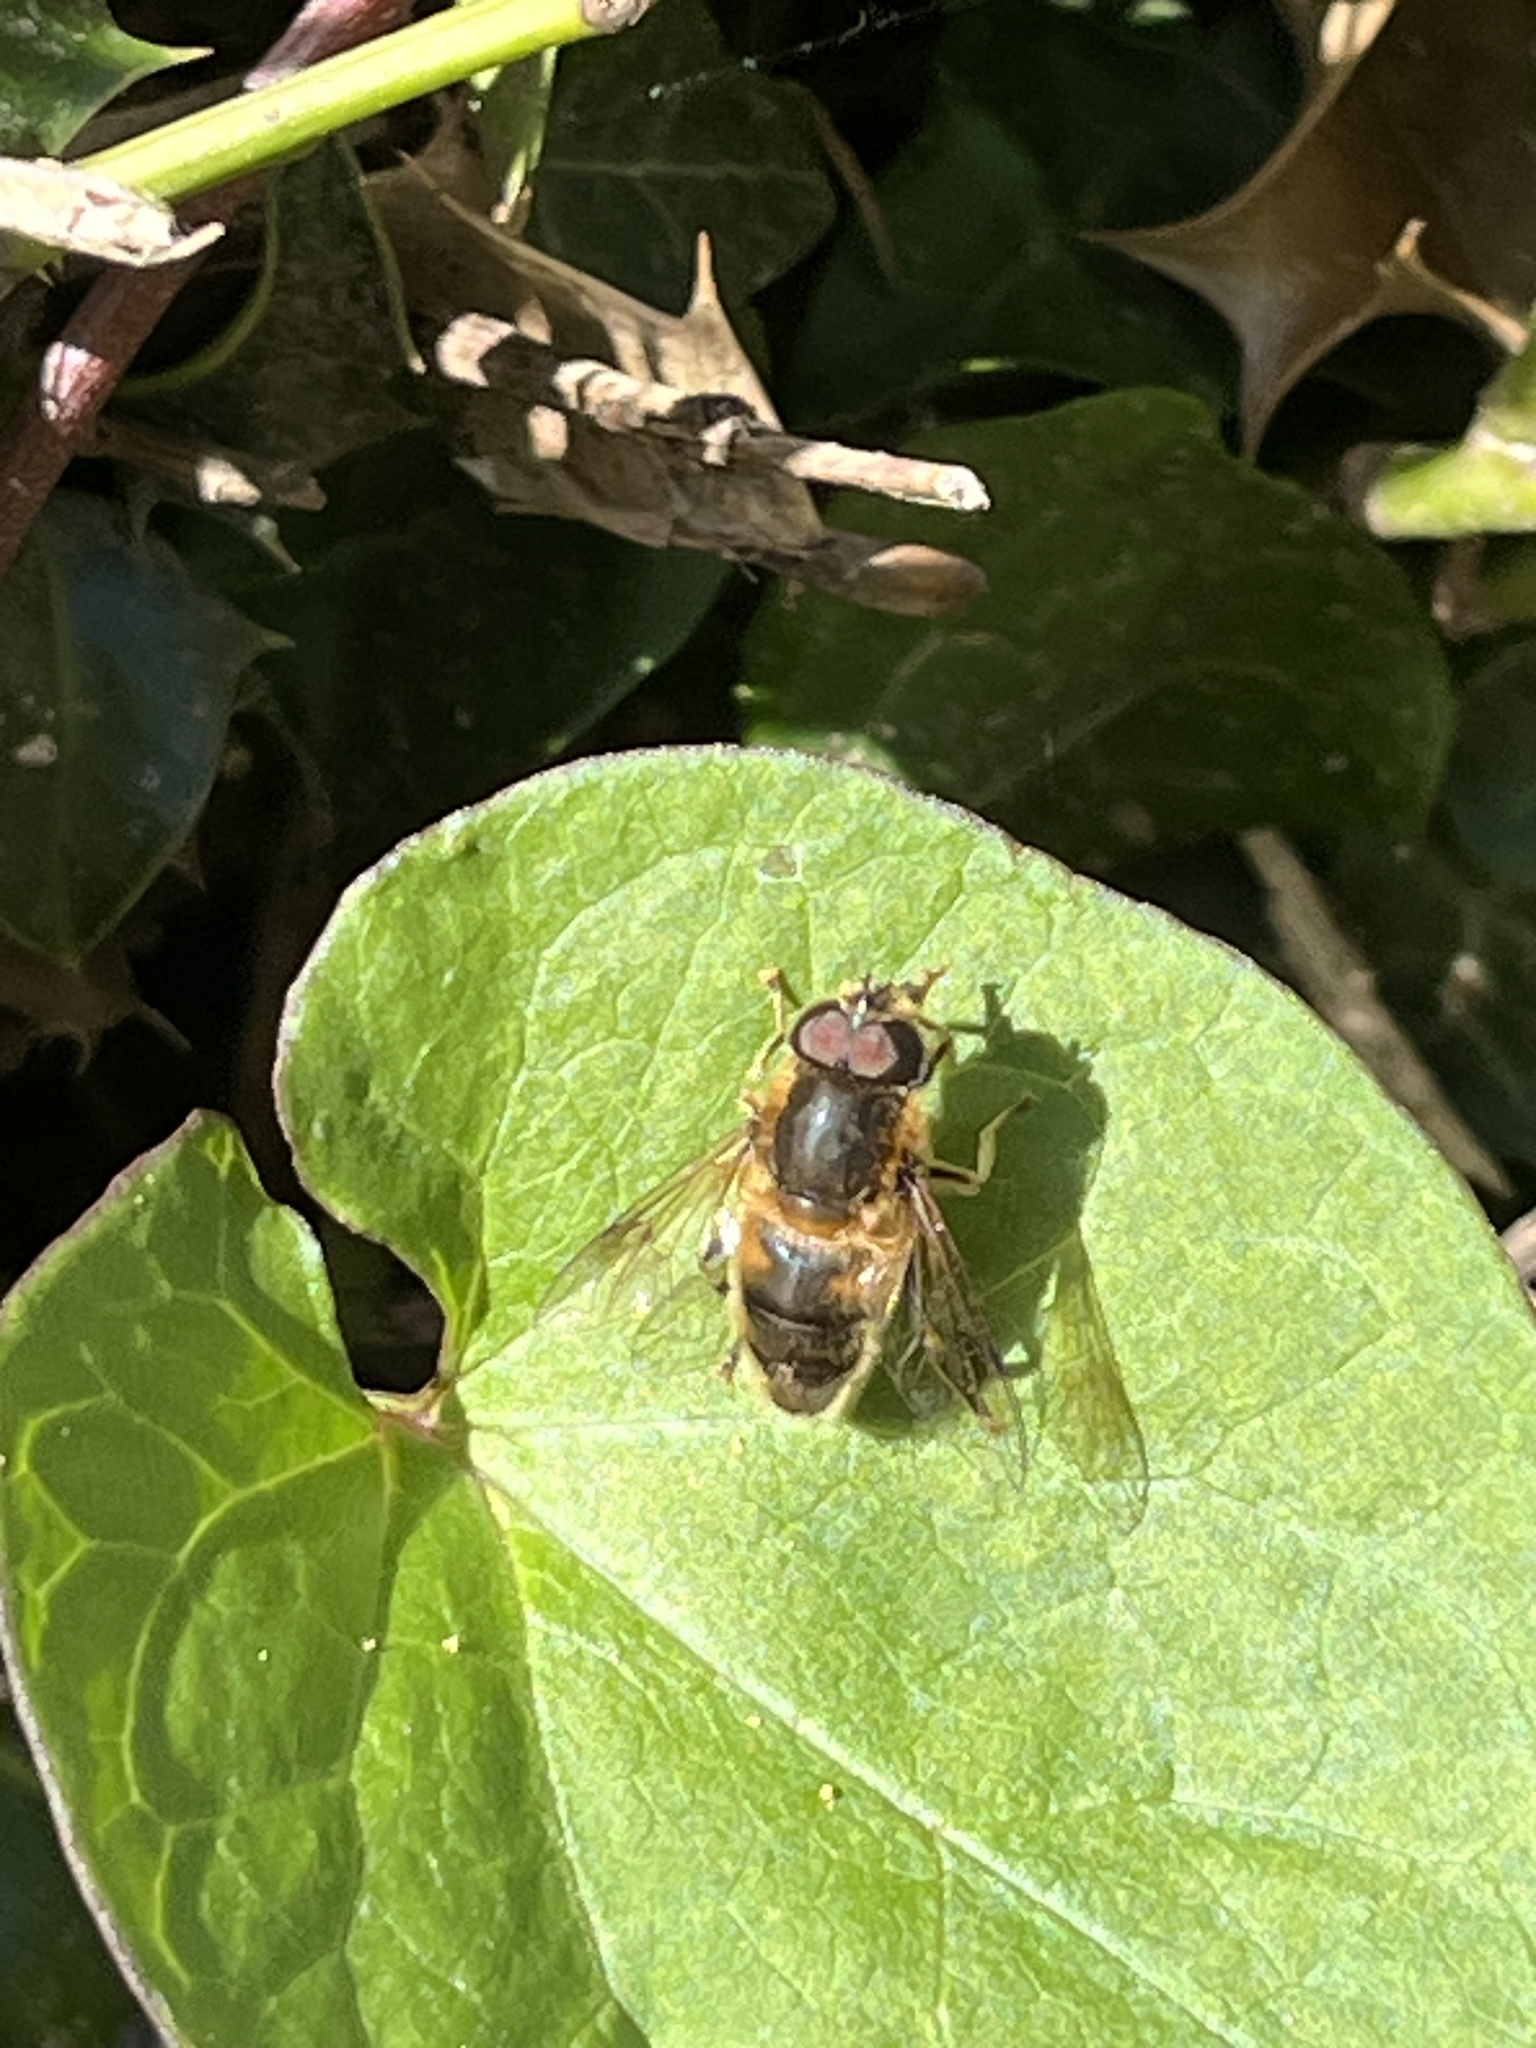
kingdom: Animalia
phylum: Arthropoda
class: Insecta
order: Diptera
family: Syrphidae
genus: Eristalis
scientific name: Eristalis pertinax
